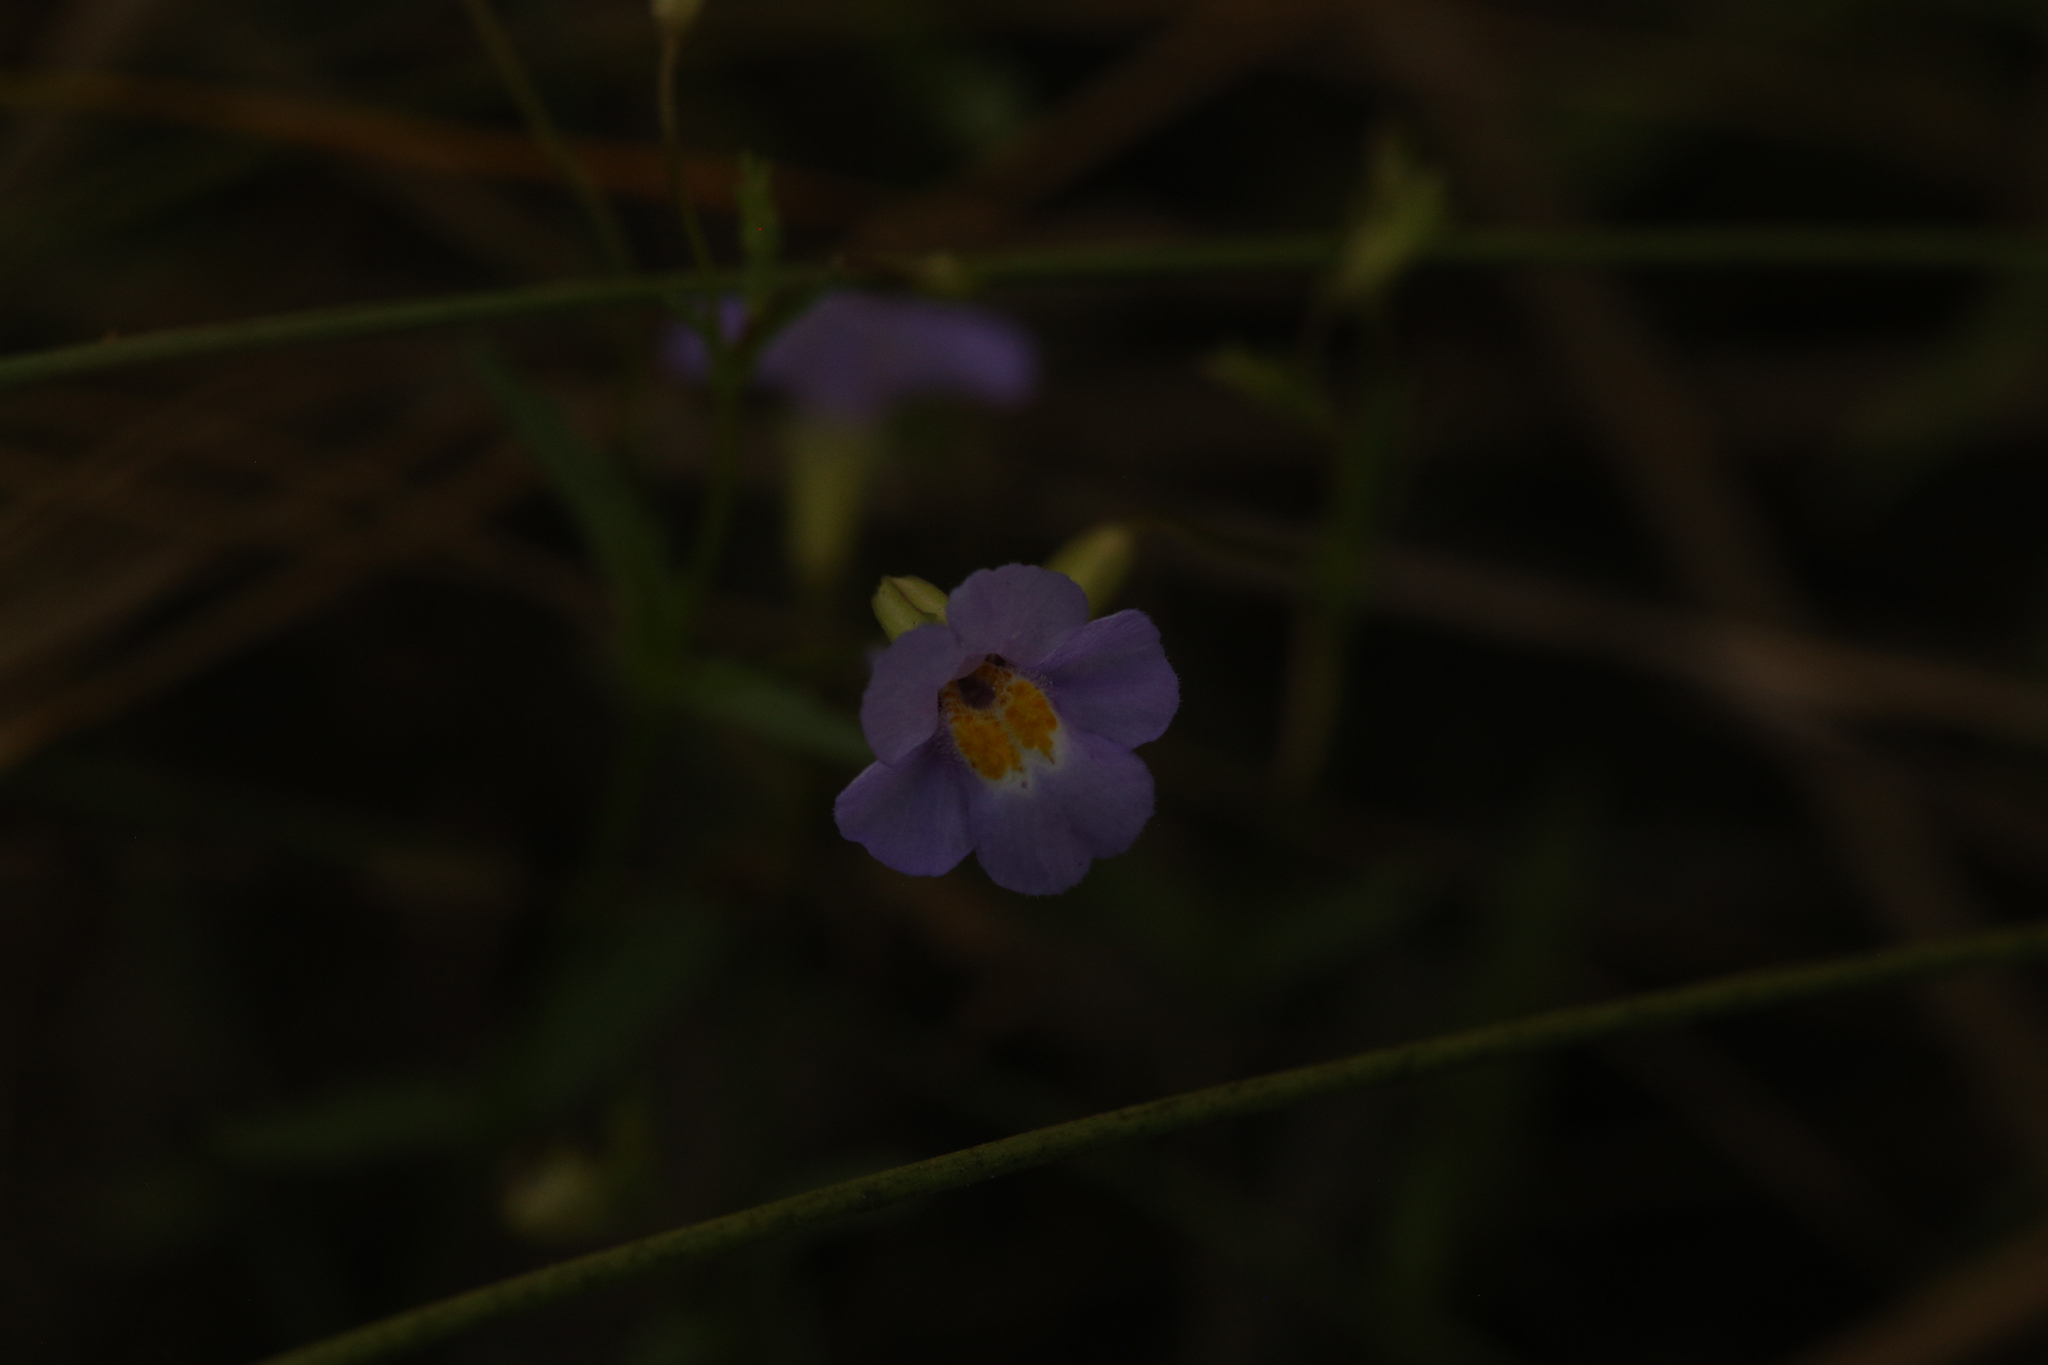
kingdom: Plantae
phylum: Tracheophyta
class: Magnoliopsida
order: Lamiales
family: Phrymaceae
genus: Uvedalia
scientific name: Uvedalia linearis
